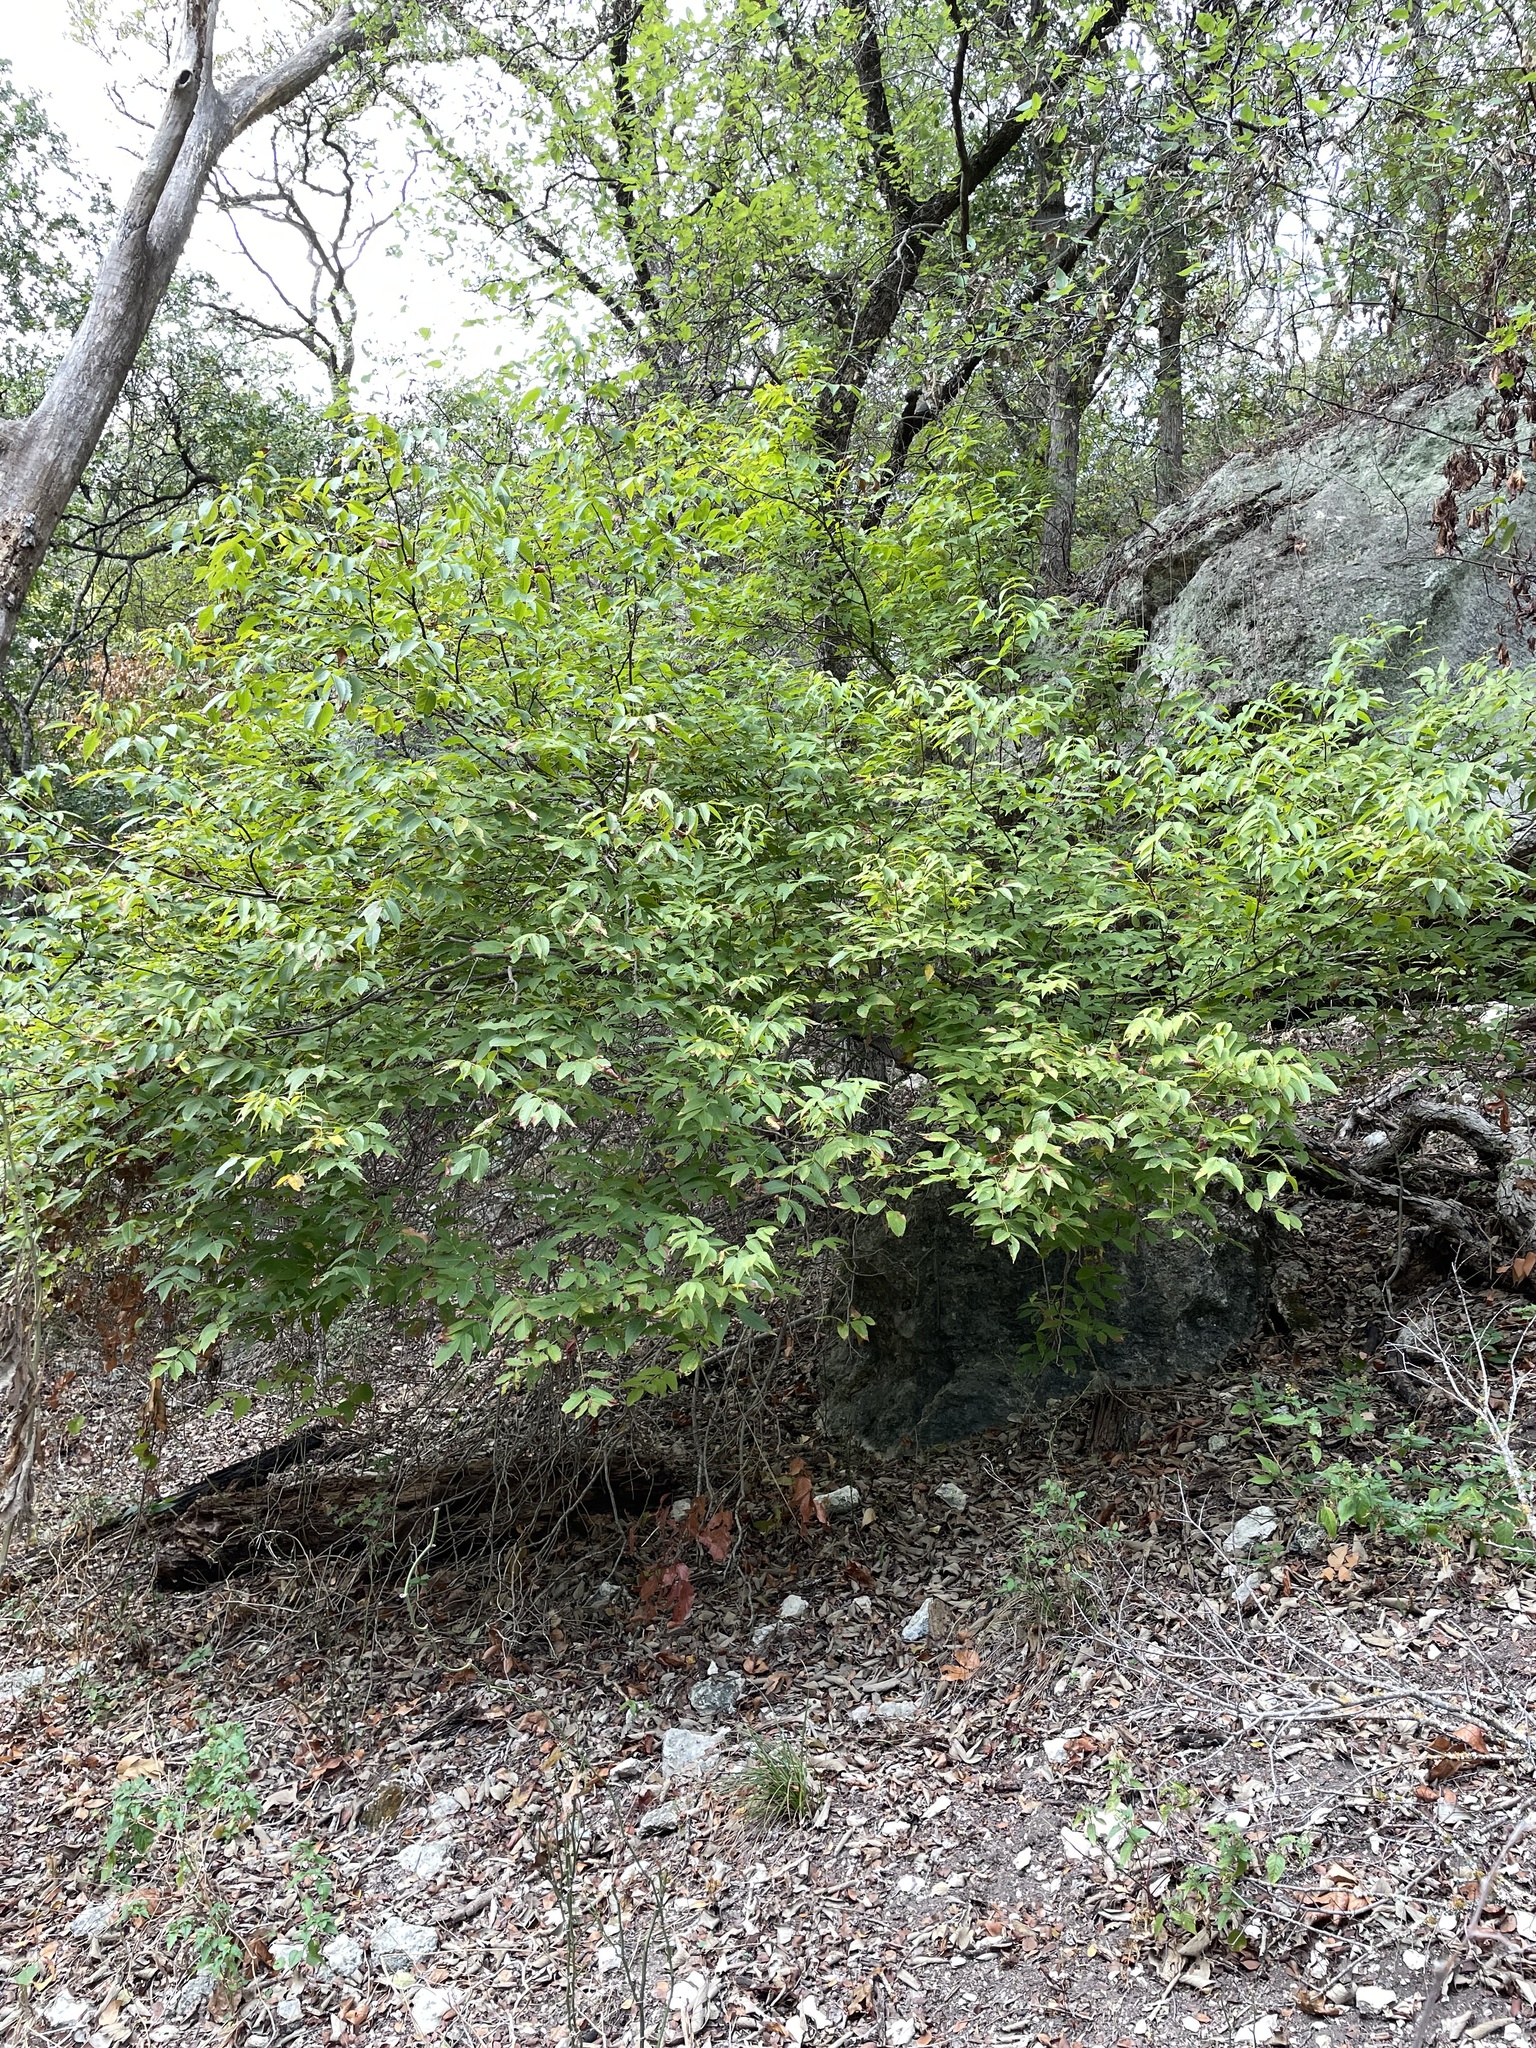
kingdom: Plantae
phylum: Tracheophyta
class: Magnoliopsida
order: Sapindales
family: Sapindaceae
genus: Ungnadia
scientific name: Ungnadia speciosa
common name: Texas-buckeye
